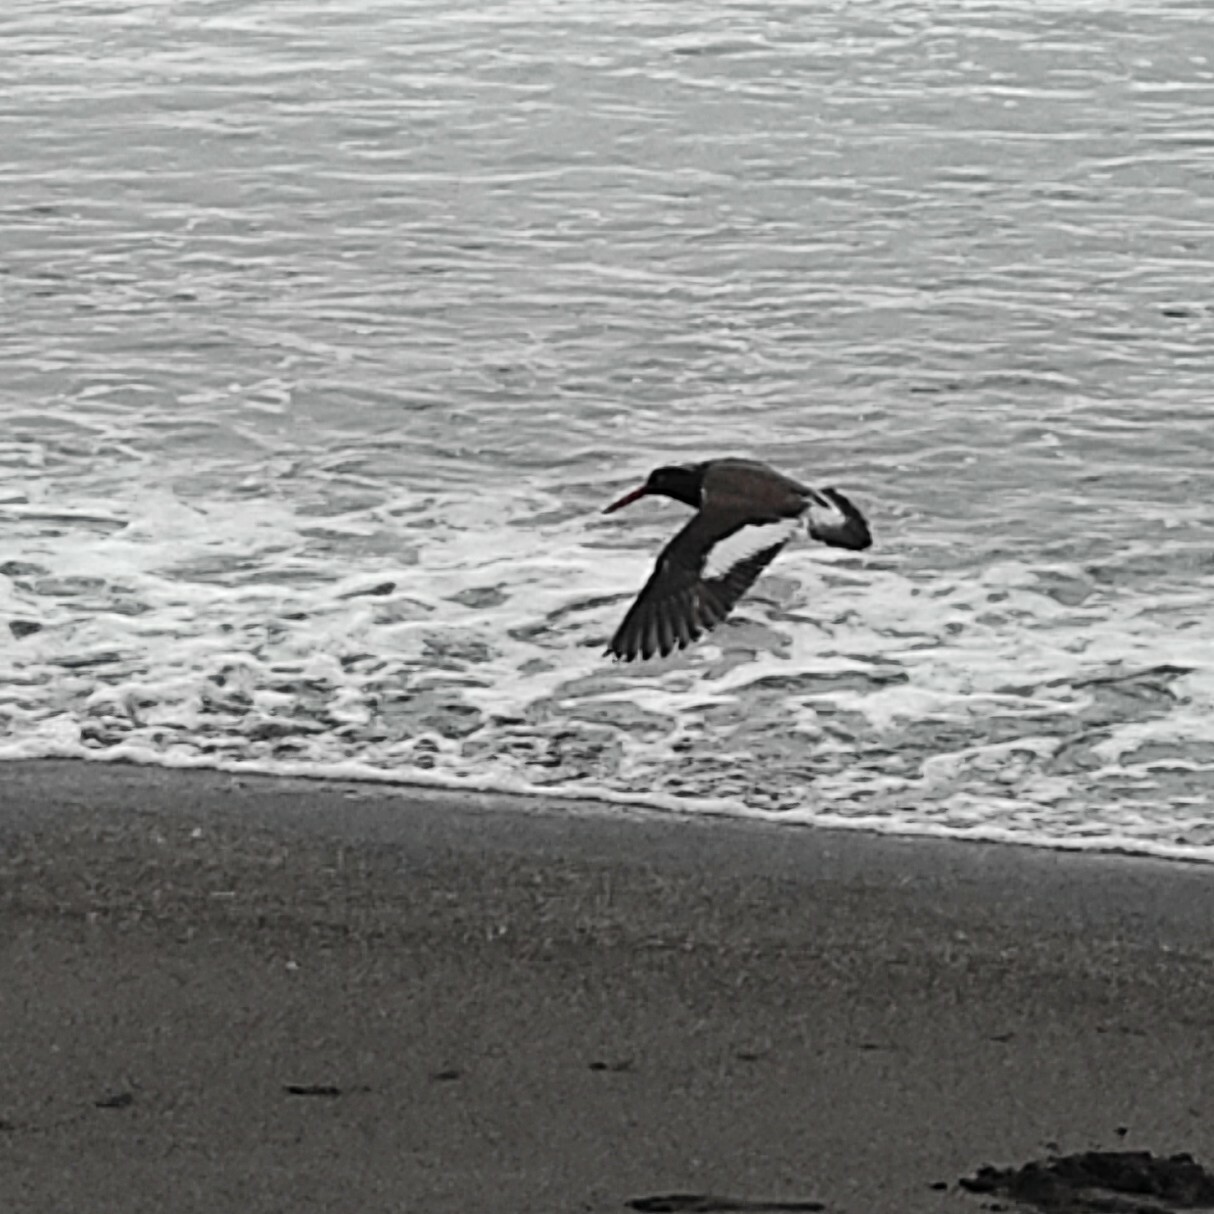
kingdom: Animalia
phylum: Chordata
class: Aves
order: Charadriiformes
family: Haematopodidae
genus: Haematopus
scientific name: Haematopus palliatus
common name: American oystercatcher
